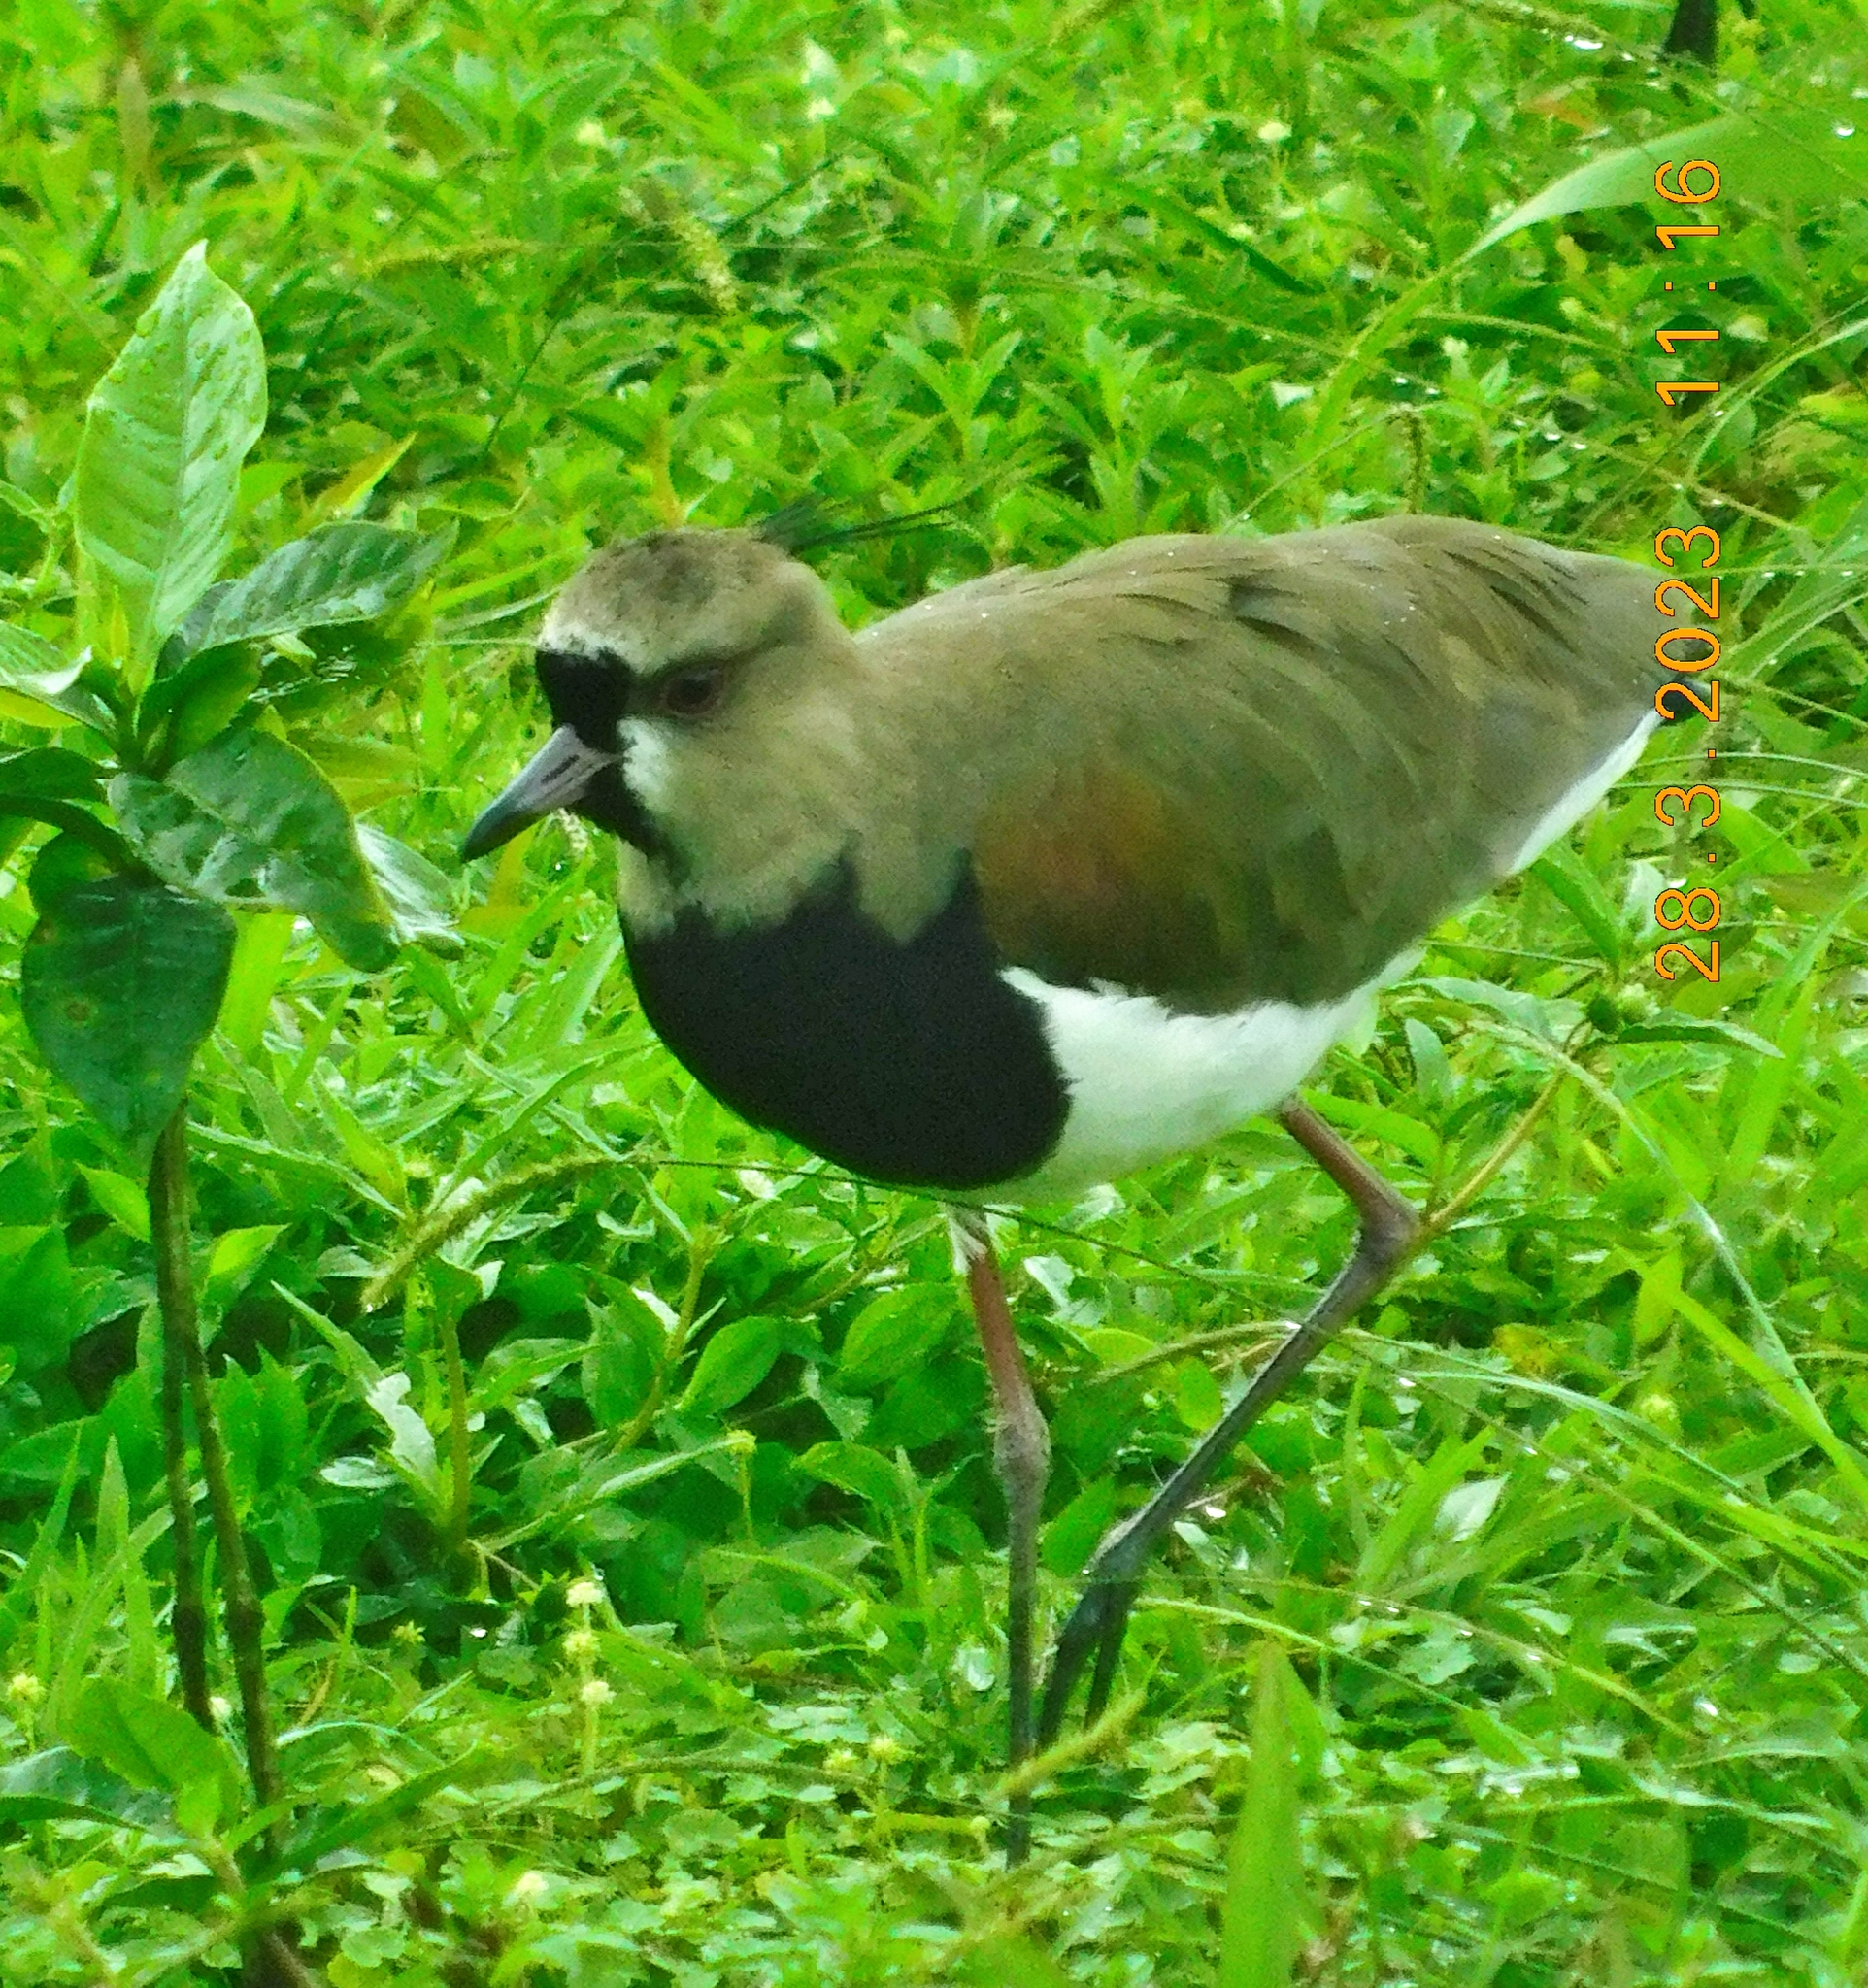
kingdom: Animalia
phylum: Chordata
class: Aves
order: Charadriiformes
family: Charadriidae
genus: Vanellus
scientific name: Vanellus chilensis
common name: Southern lapwing
